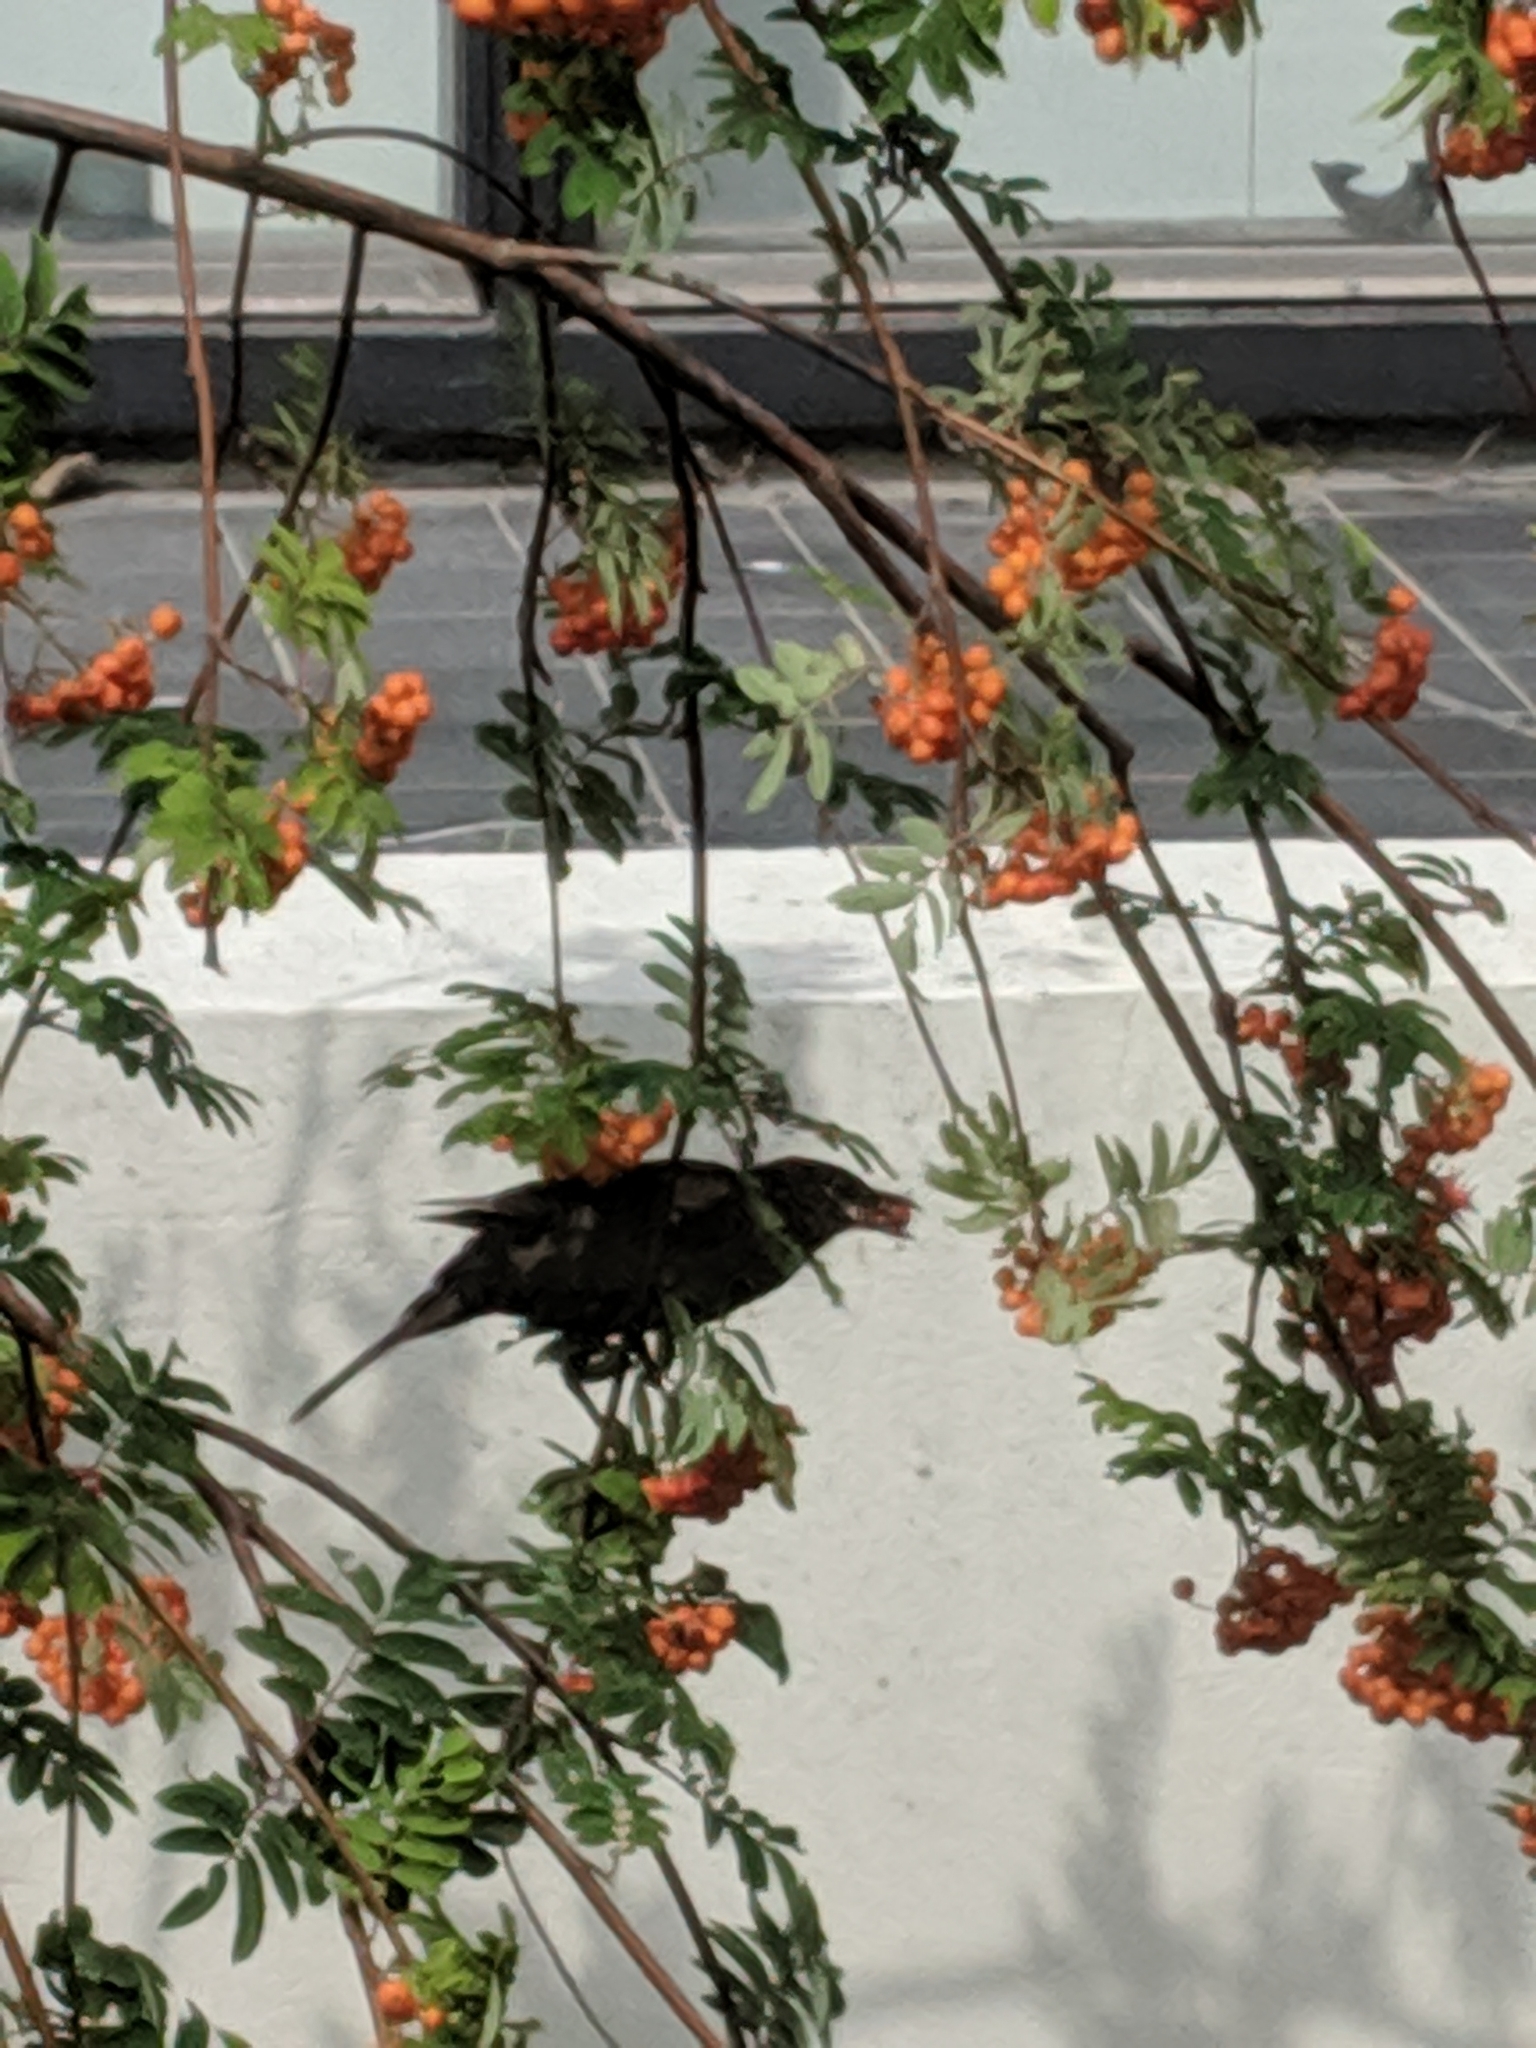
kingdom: Animalia
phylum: Chordata
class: Aves
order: Passeriformes
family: Turdidae
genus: Turdus
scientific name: Turdus merula
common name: Common blackbird
